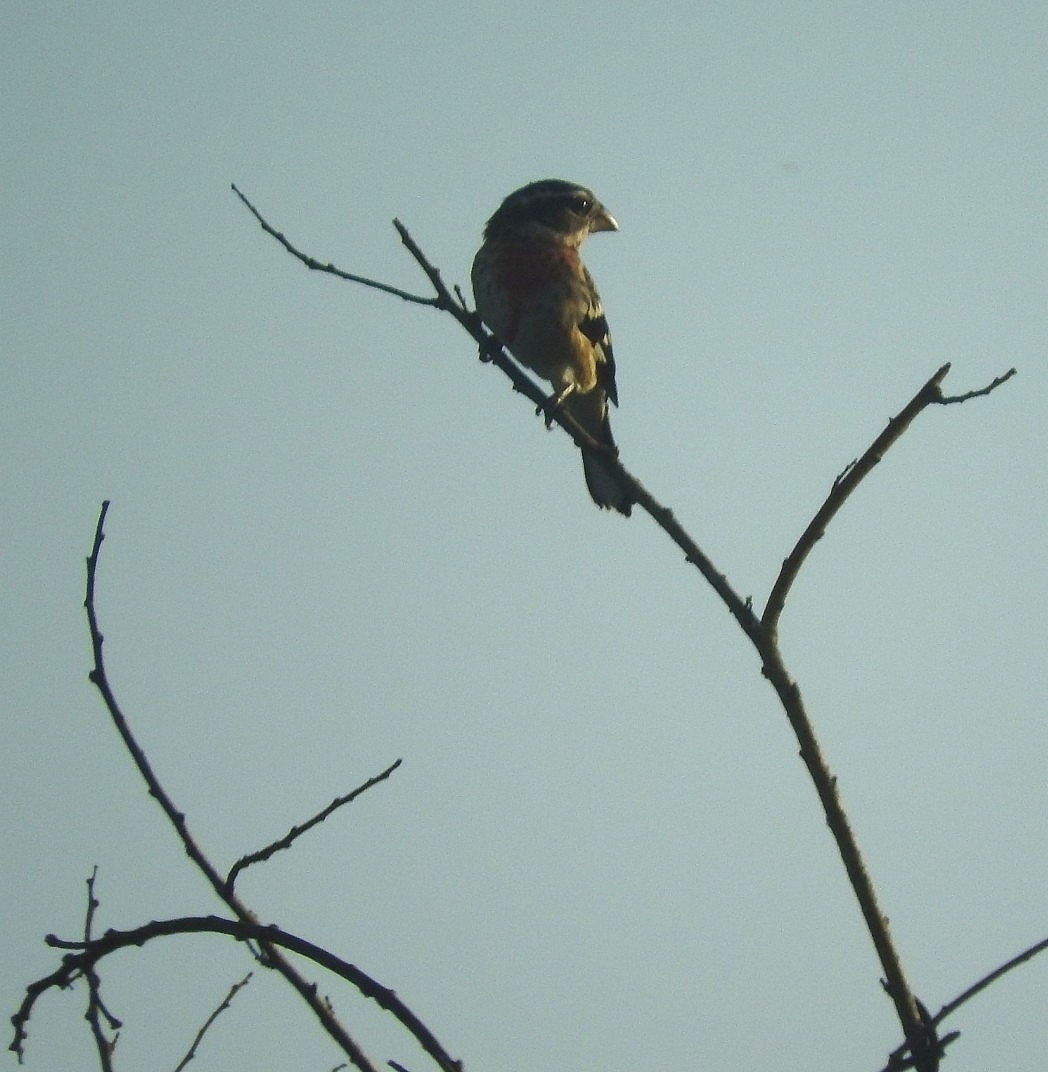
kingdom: Animalia
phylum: Chordata
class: Aves
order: Passeriformes
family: Cardinalidae
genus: Pheucticus
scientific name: Pheucticus ludovicianus
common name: Rose-breasted grosbeak
